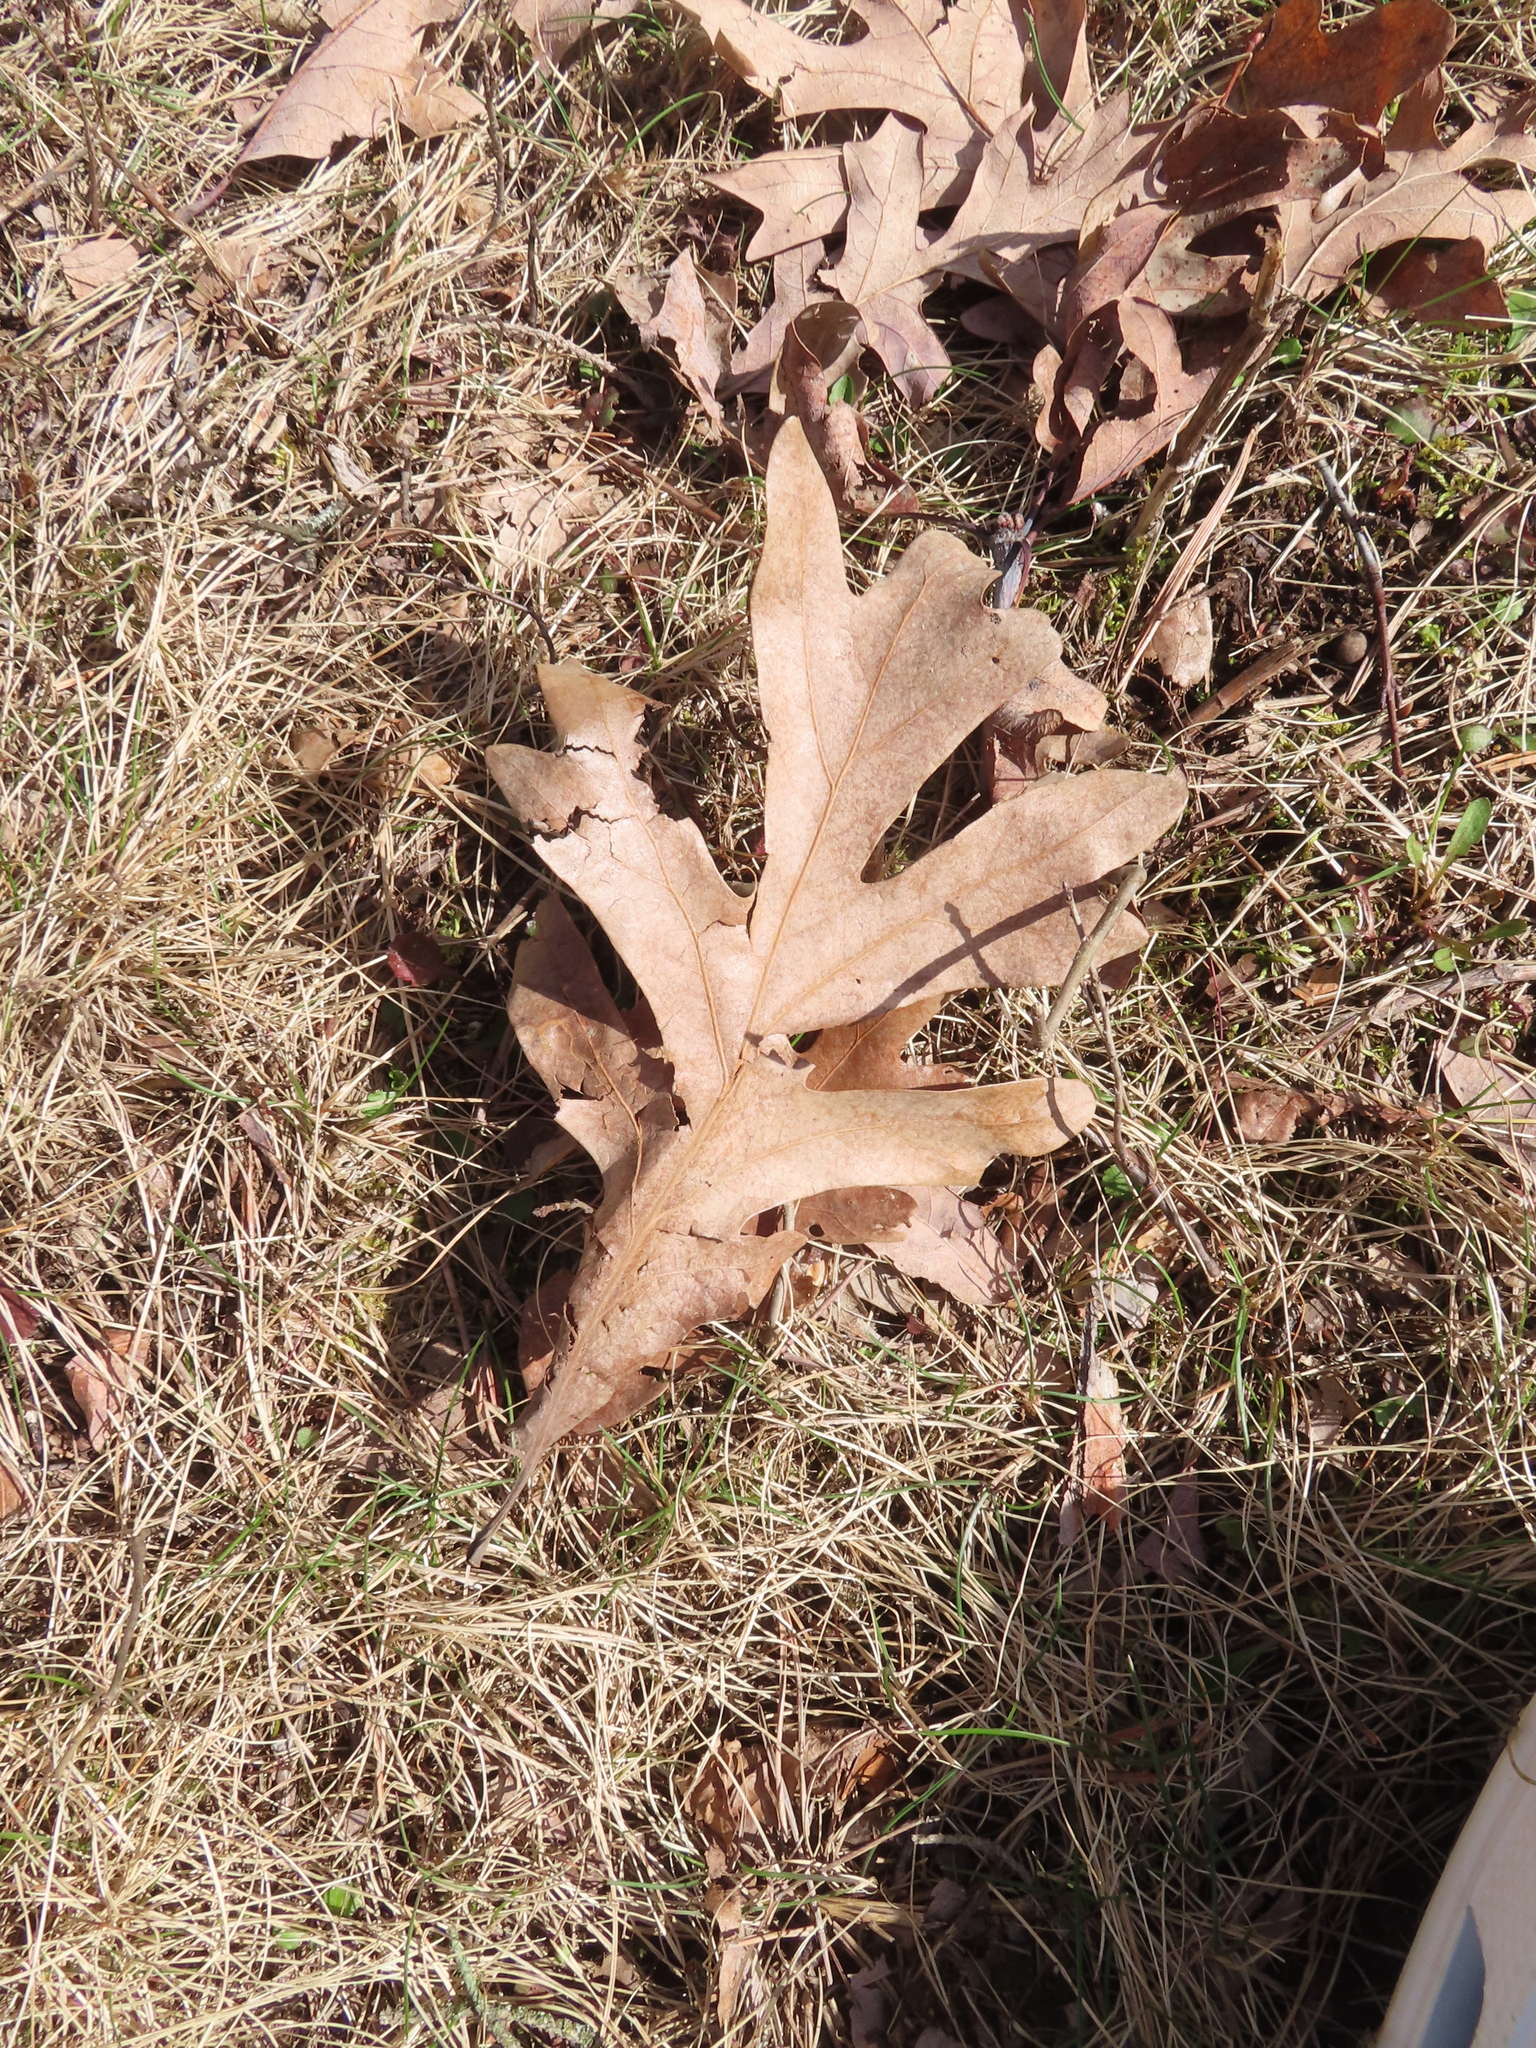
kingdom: Plantae
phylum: Tracheophyta
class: Magnoliopsida
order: Fagales
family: Fagaceae
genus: Quercus
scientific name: Quercus alba
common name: White oak
